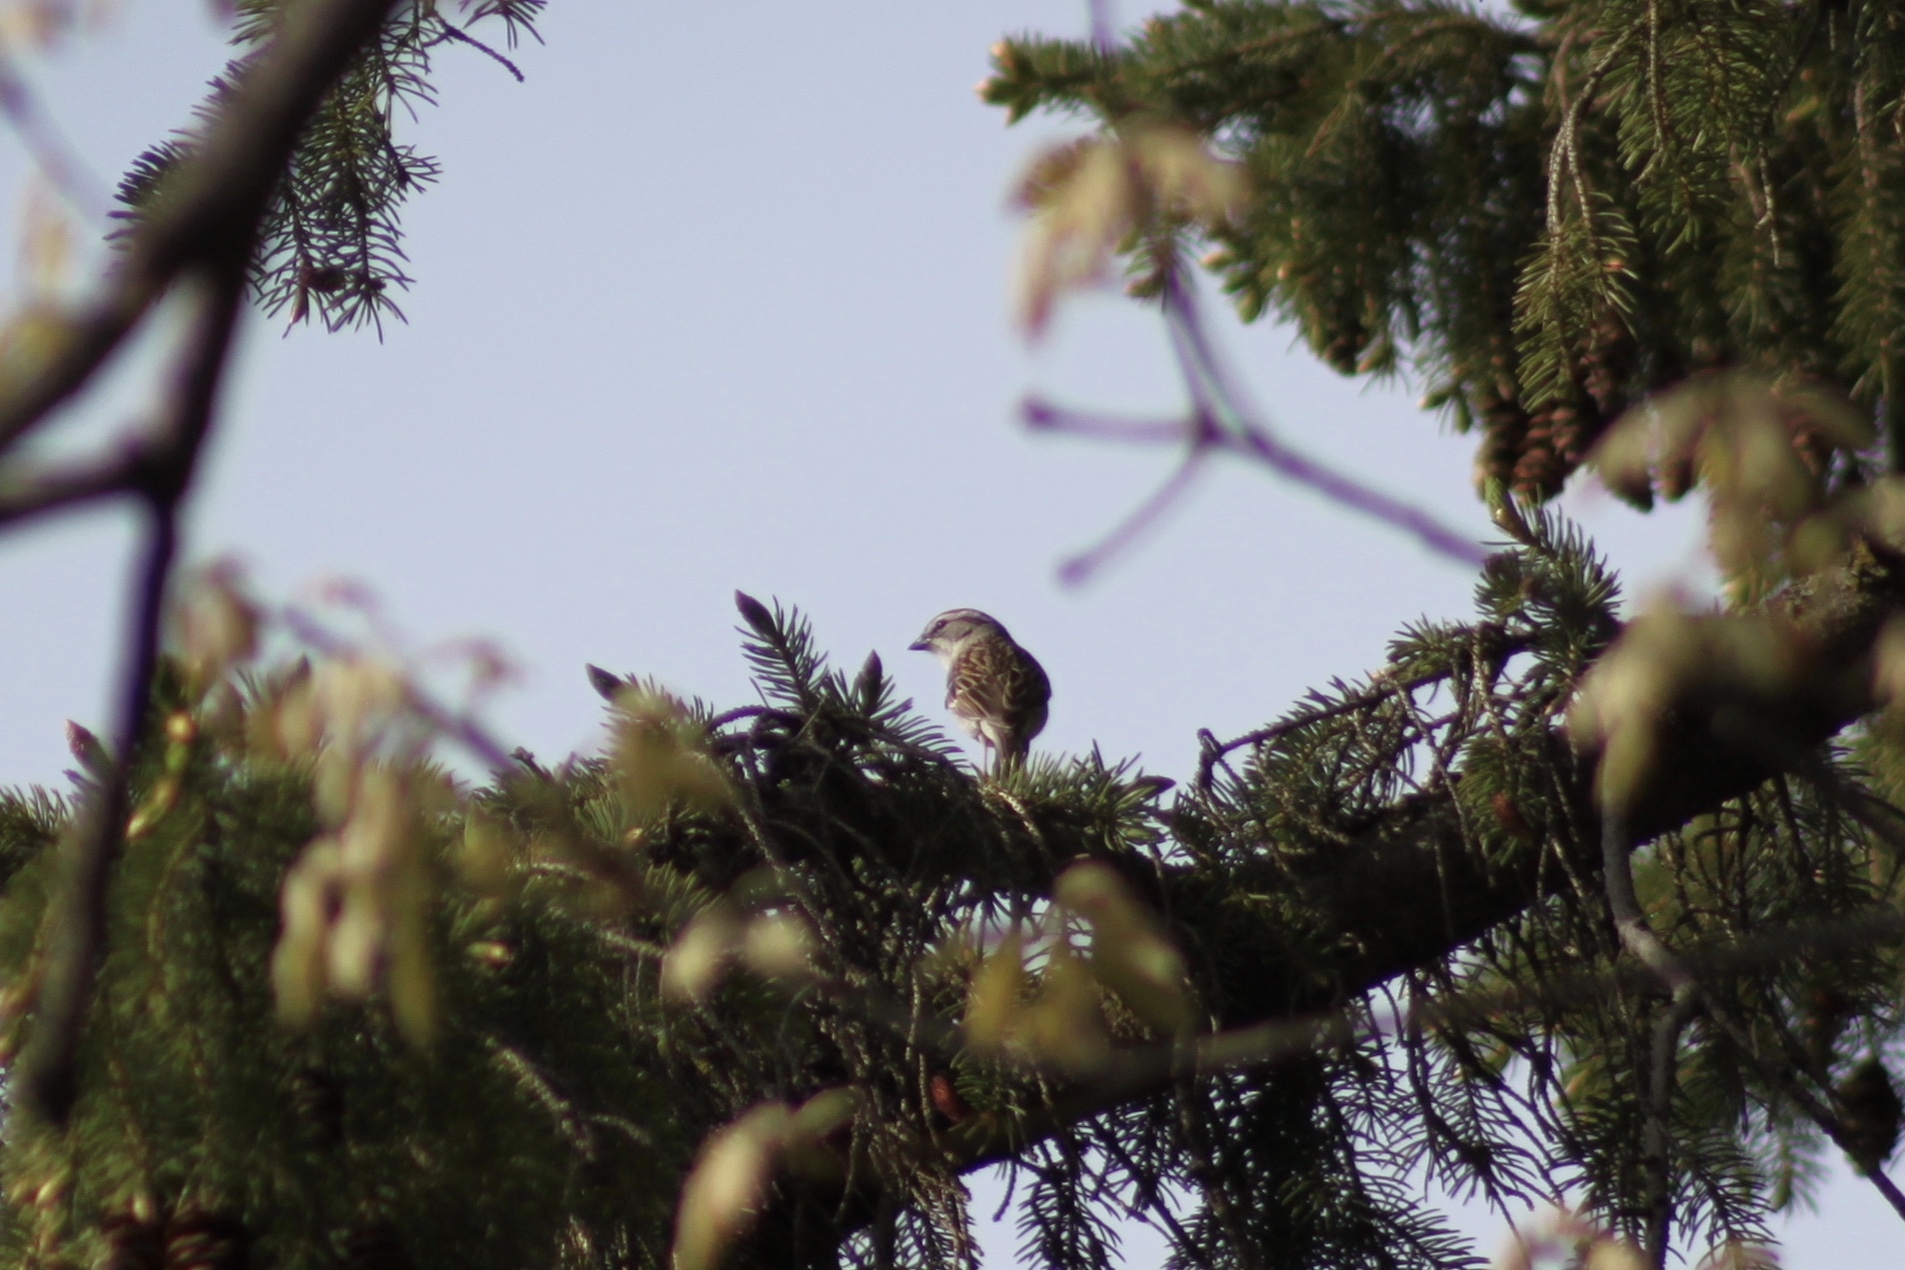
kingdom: Animalia
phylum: Chordata
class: Aves
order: Passeriformes
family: Passerellidae
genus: Spizella
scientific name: Spizella passerina
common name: Chipping sparrow
